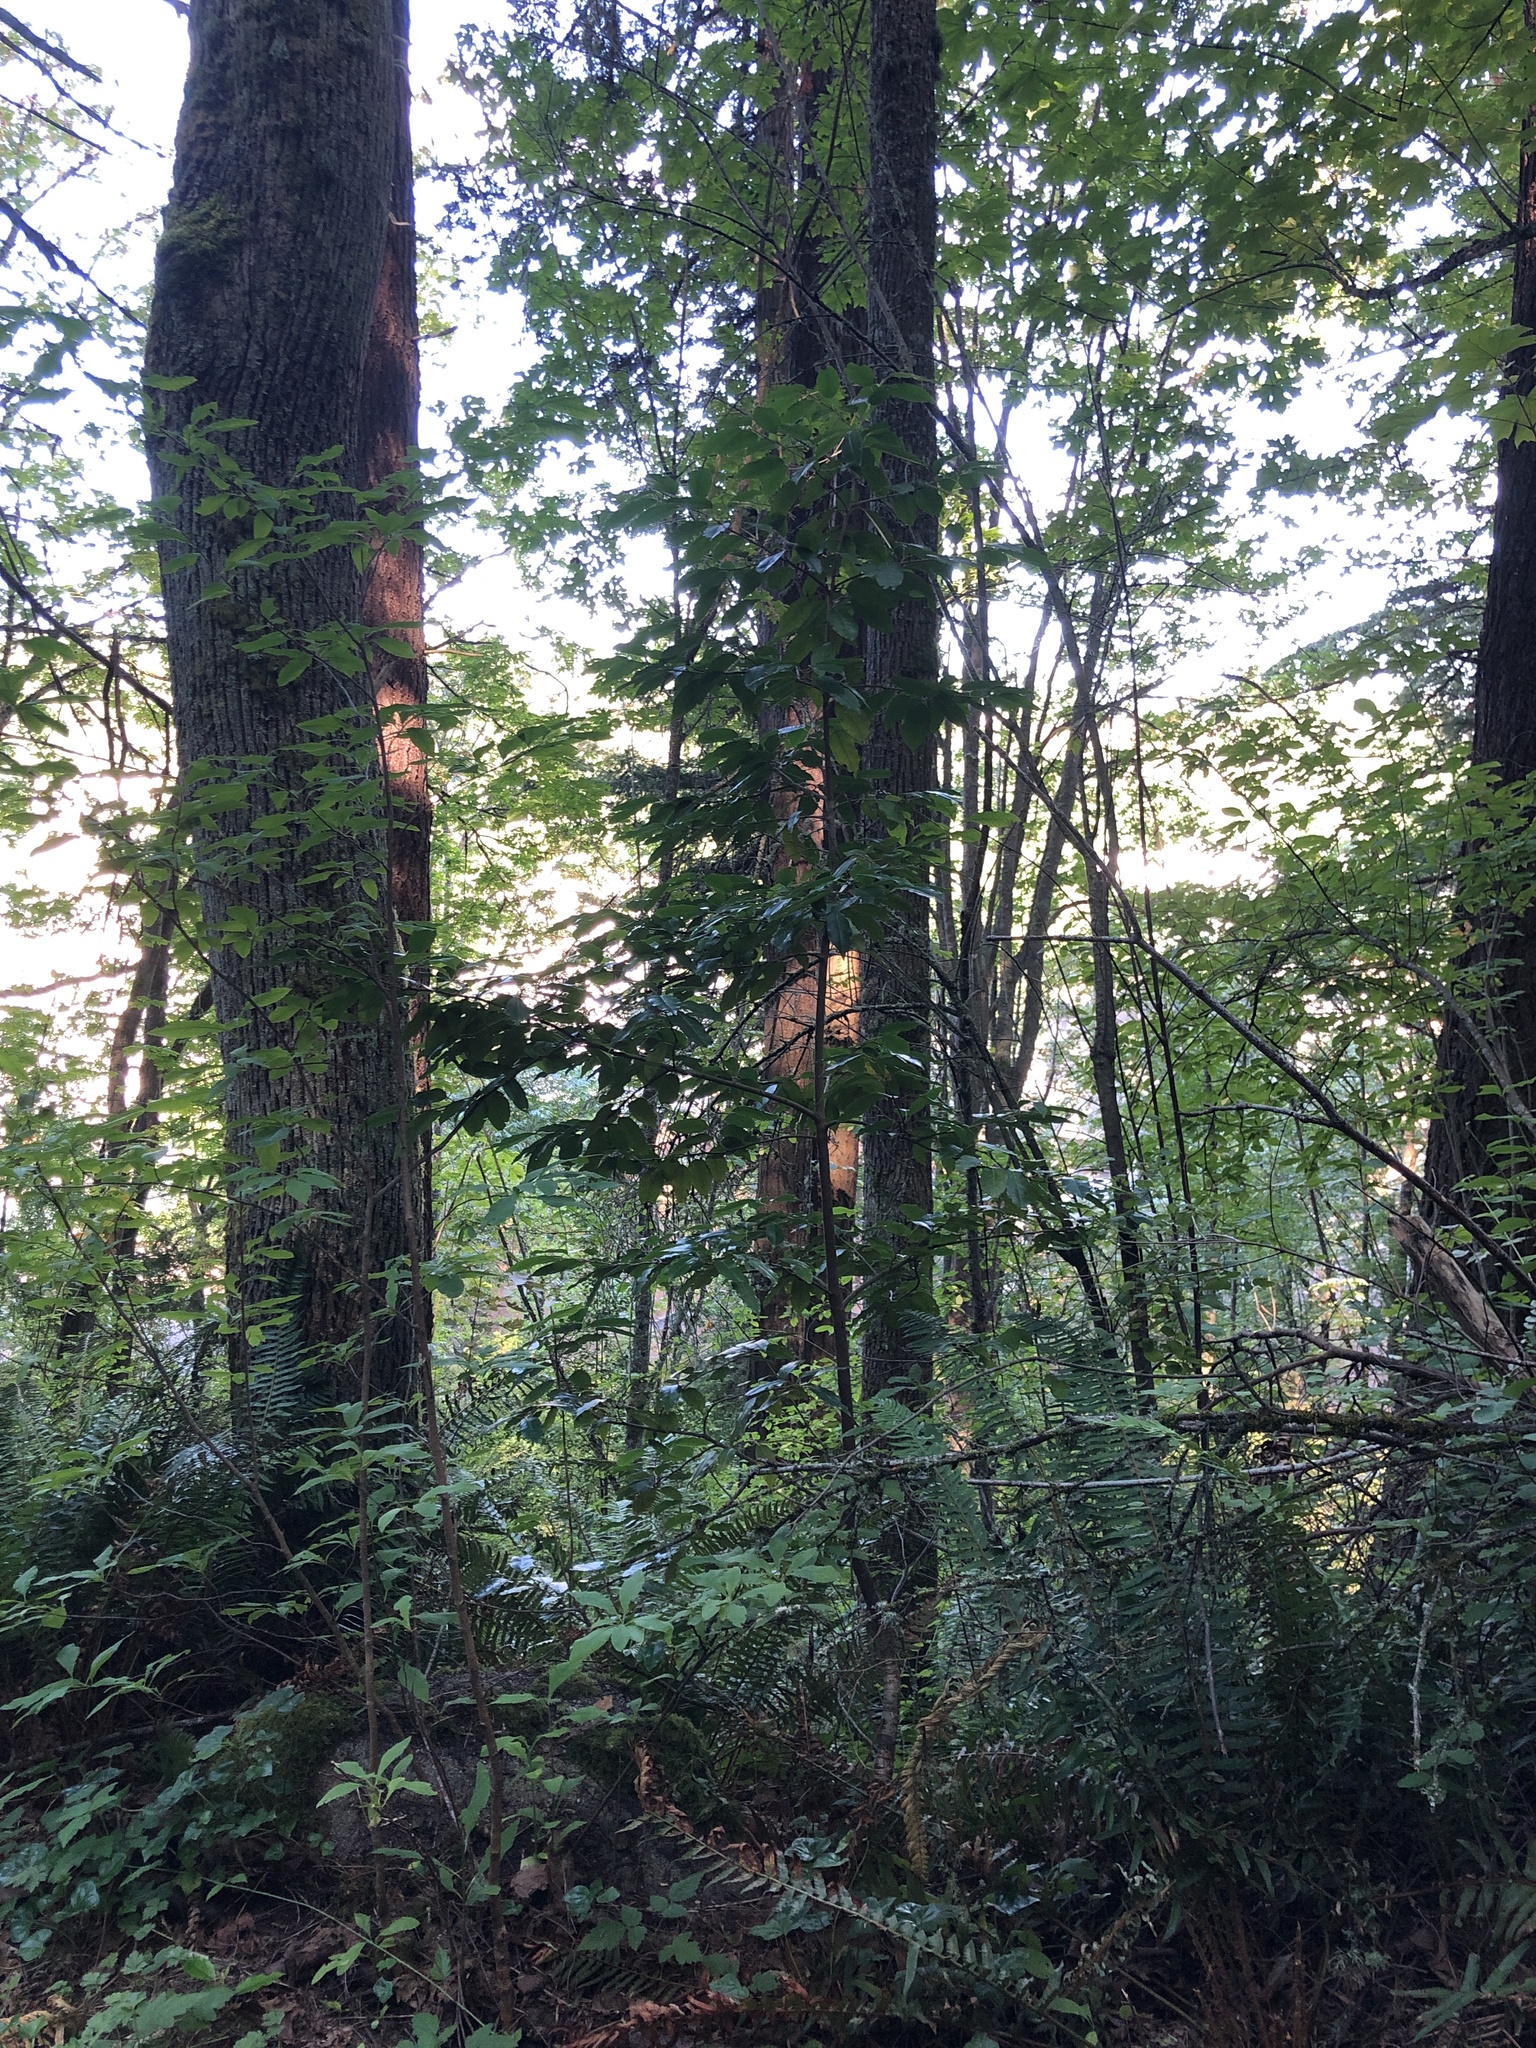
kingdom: Plantae
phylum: Tracheophyta
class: Magnoliopsida
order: Rosales
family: Rosaceae
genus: Prunus
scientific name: Prunus lusitanica
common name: Portugal laurel
